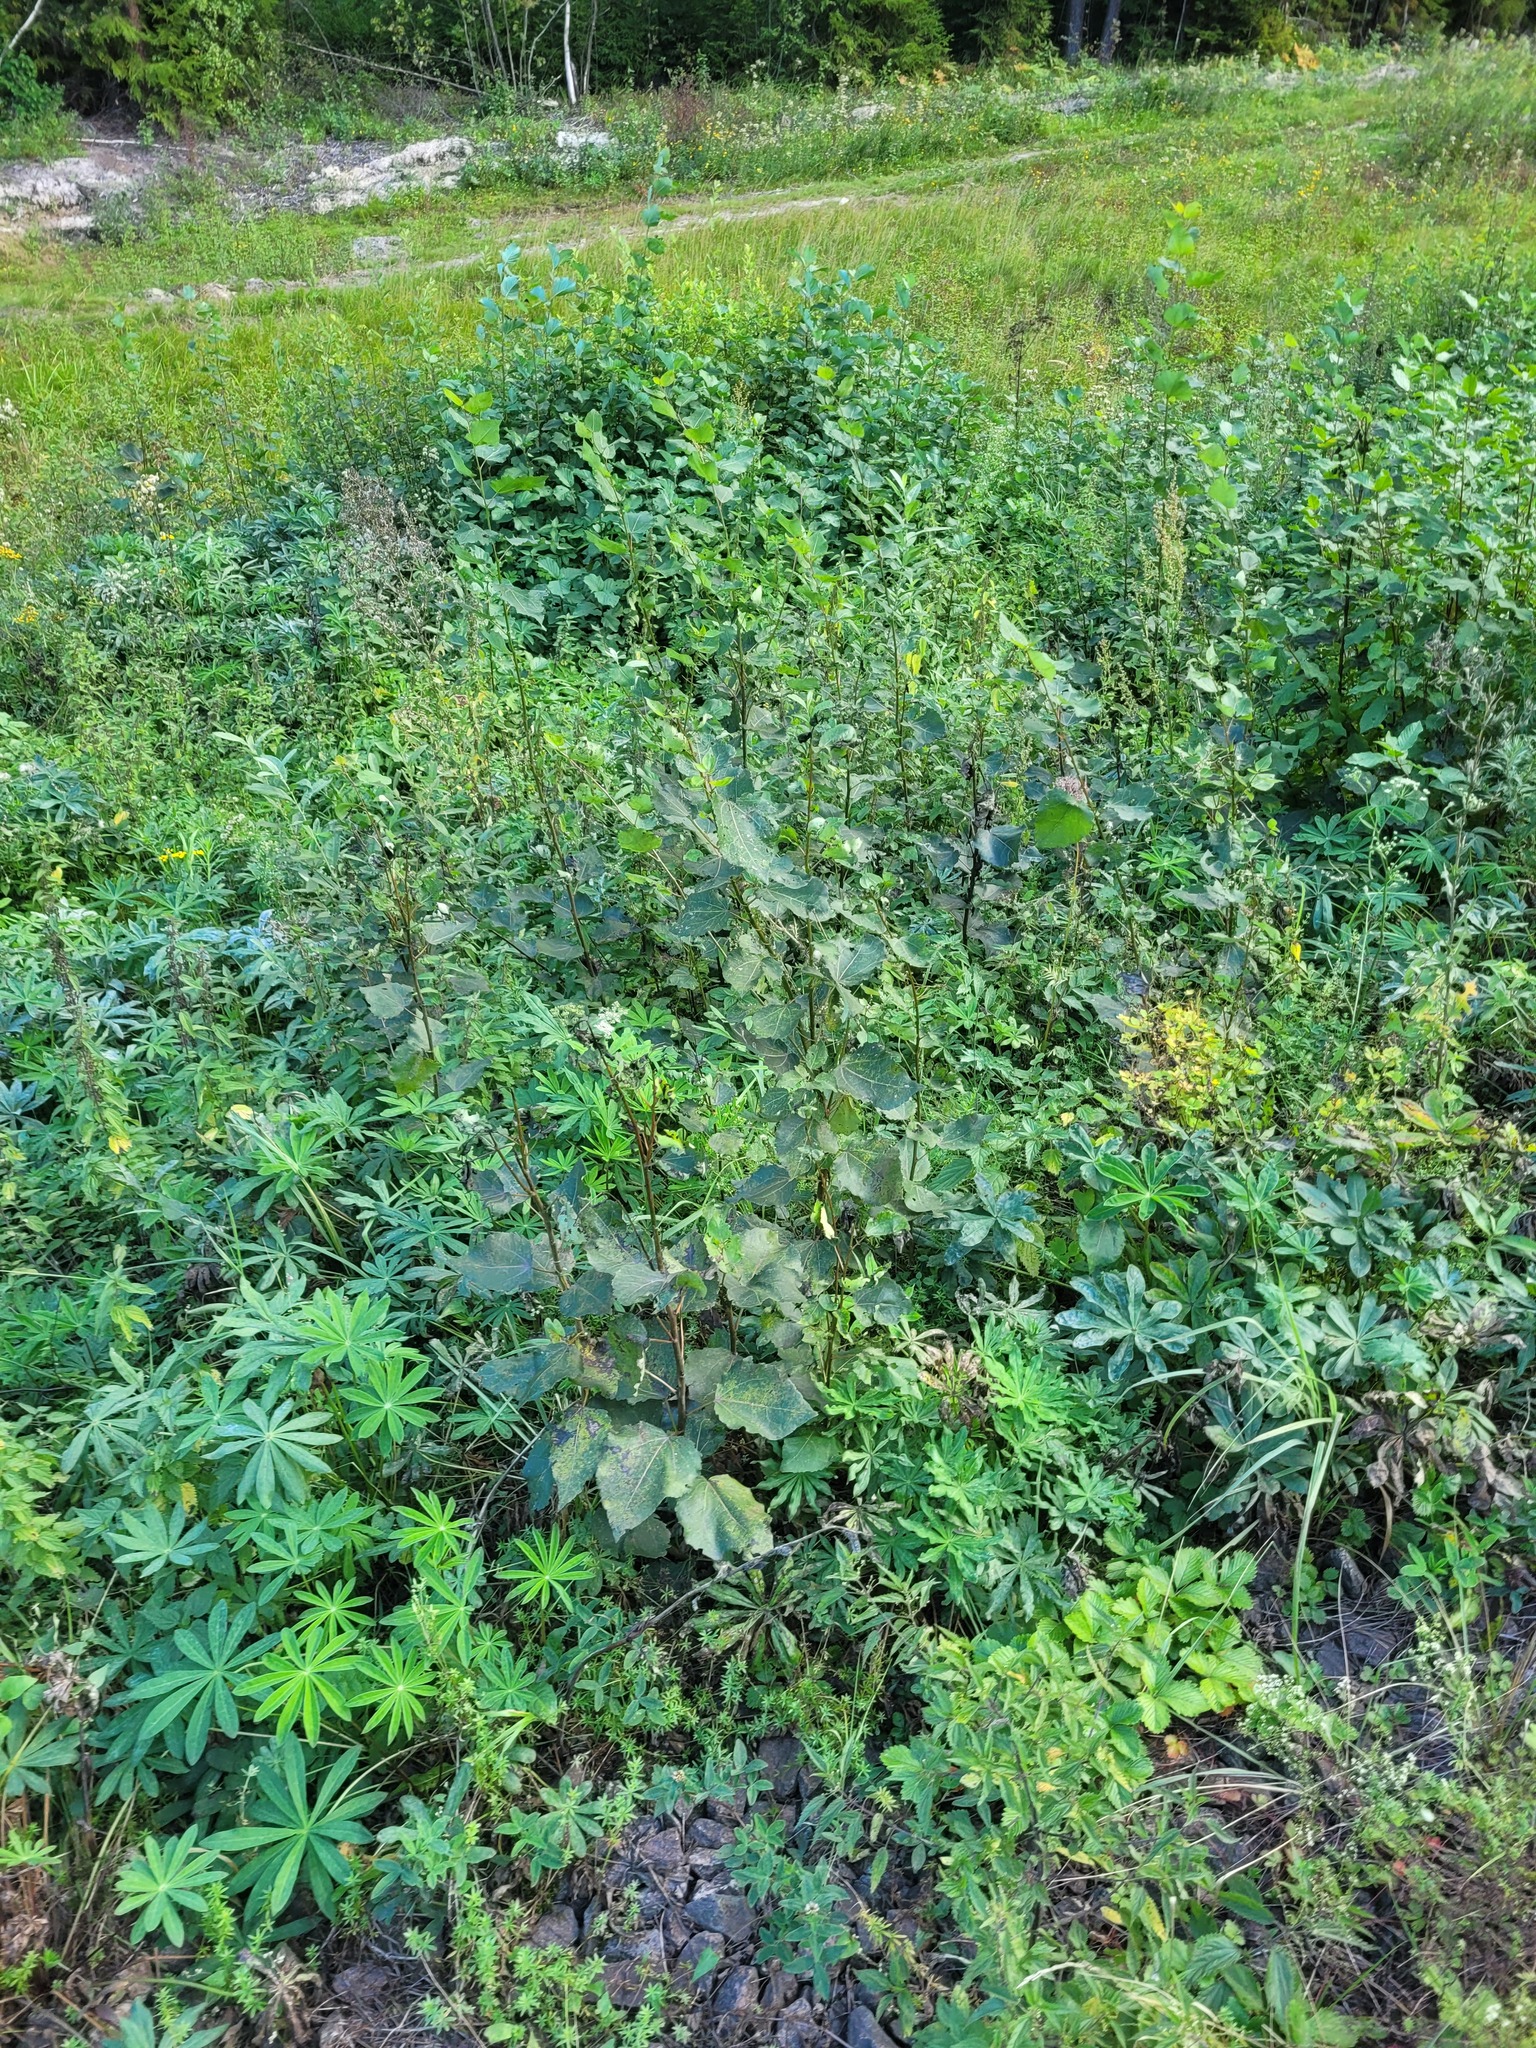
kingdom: Plantae
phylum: Tracheophyta
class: Magnoliopsida
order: Malpighiales
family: Salicaceae
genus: Populus
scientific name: Populus tremula
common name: European aspen
